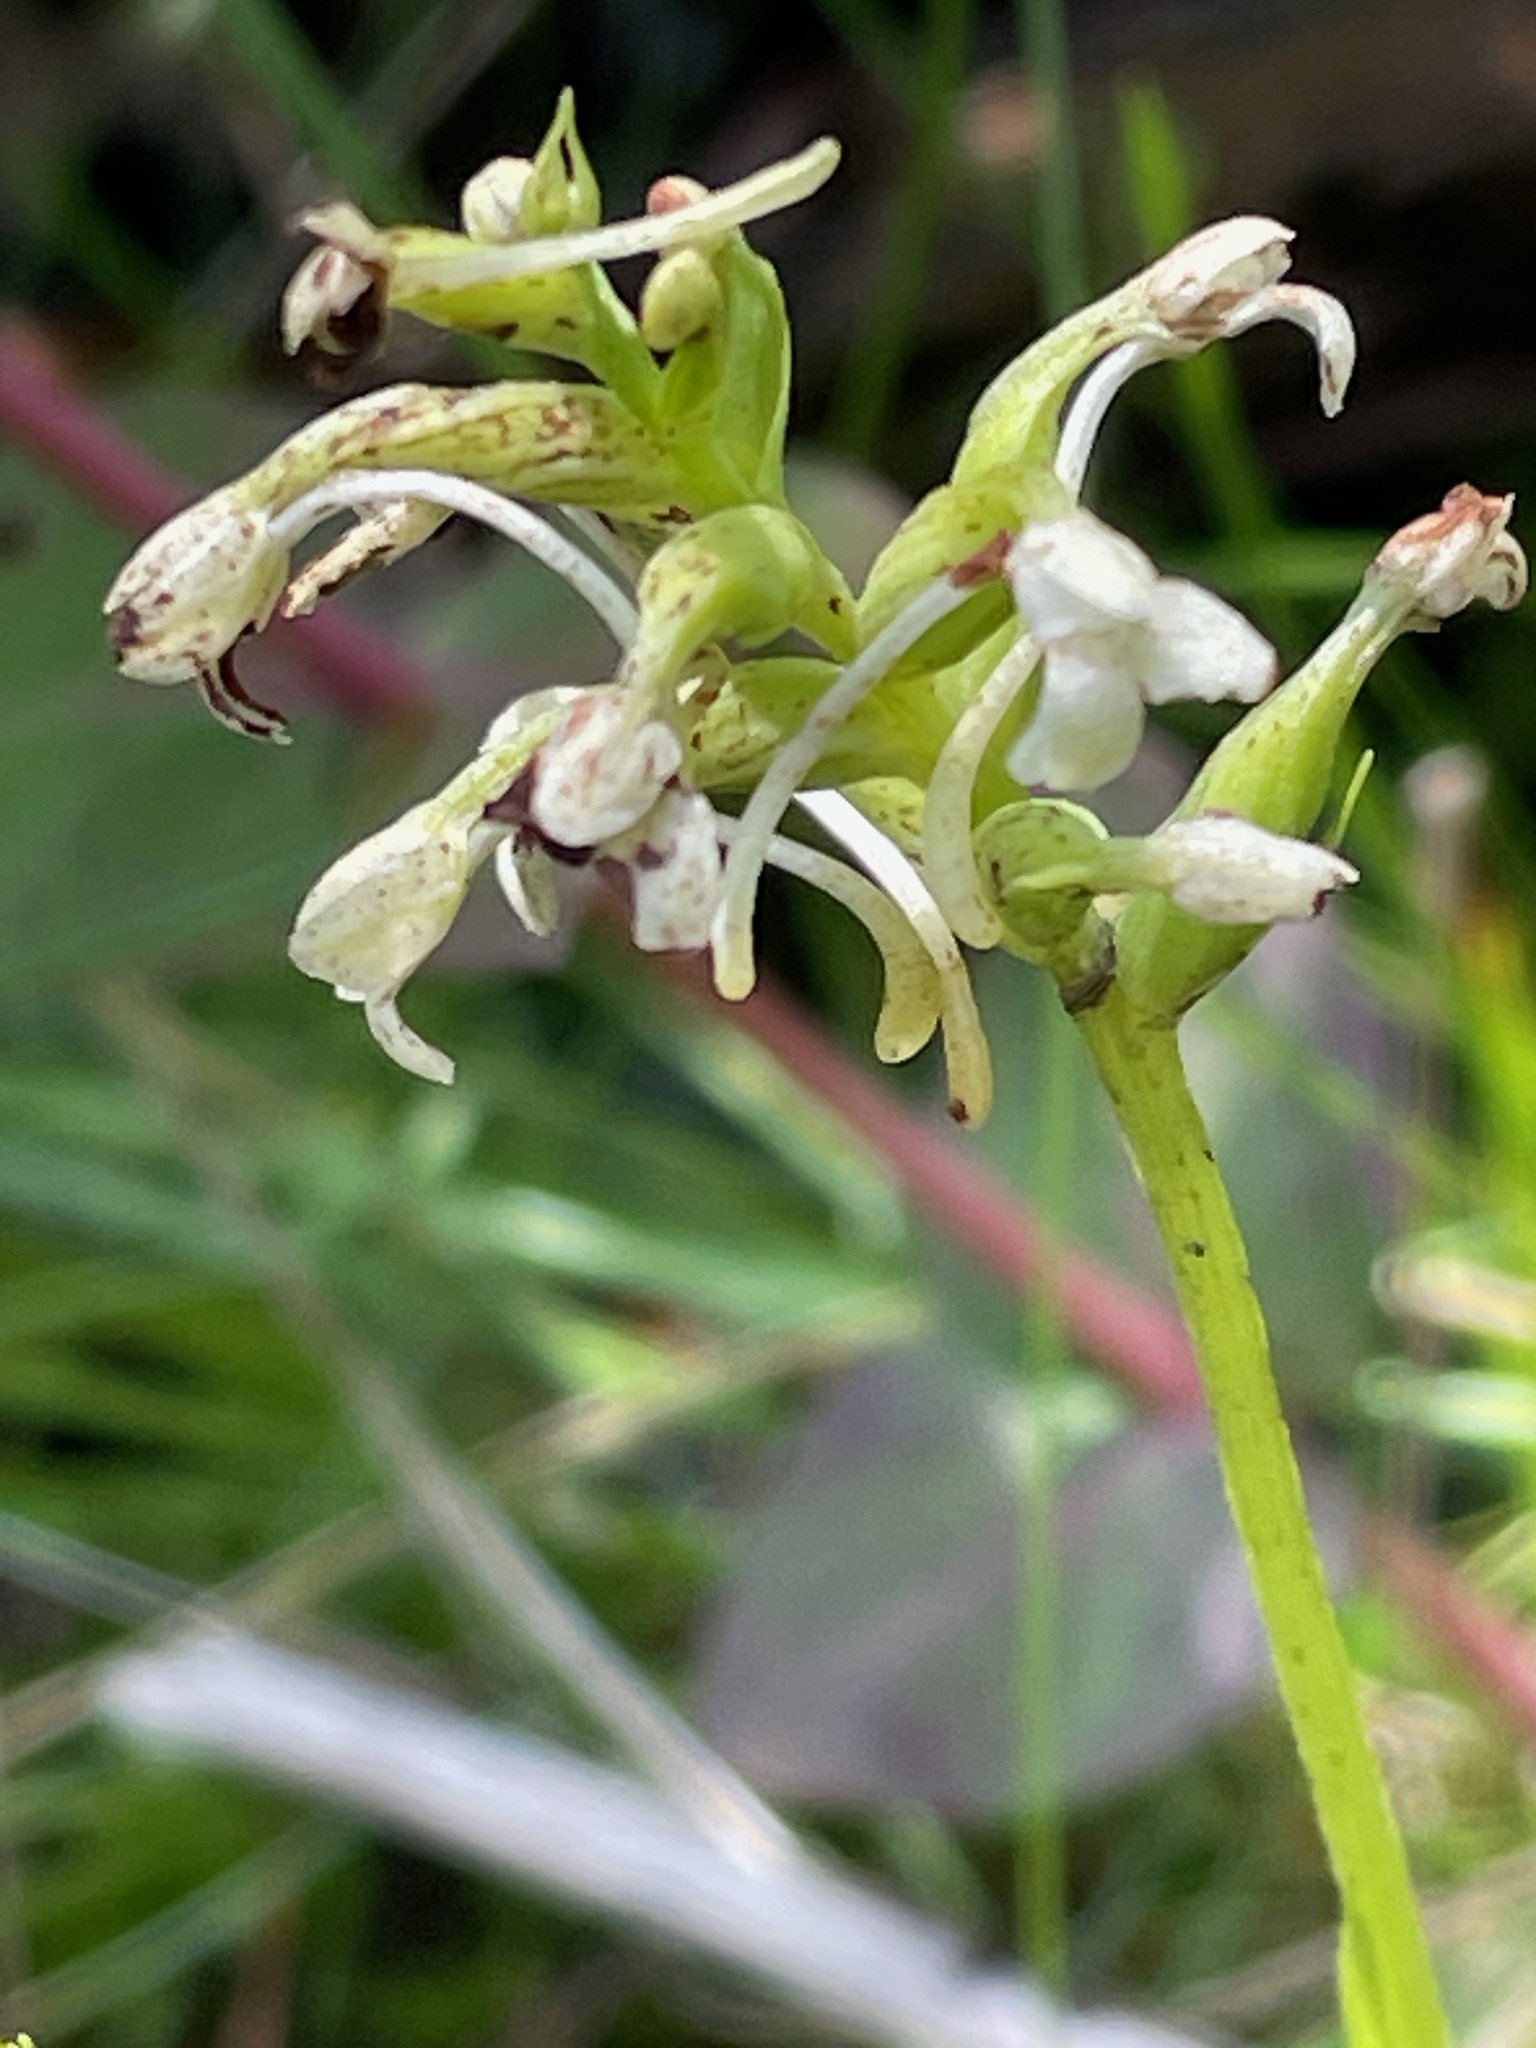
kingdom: Plantae
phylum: Tracheophyta
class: Liliopsida
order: Asparagales
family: Orchidaceae
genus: Platanthera
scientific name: Platanthera clavellata
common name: Club-spur orchid
